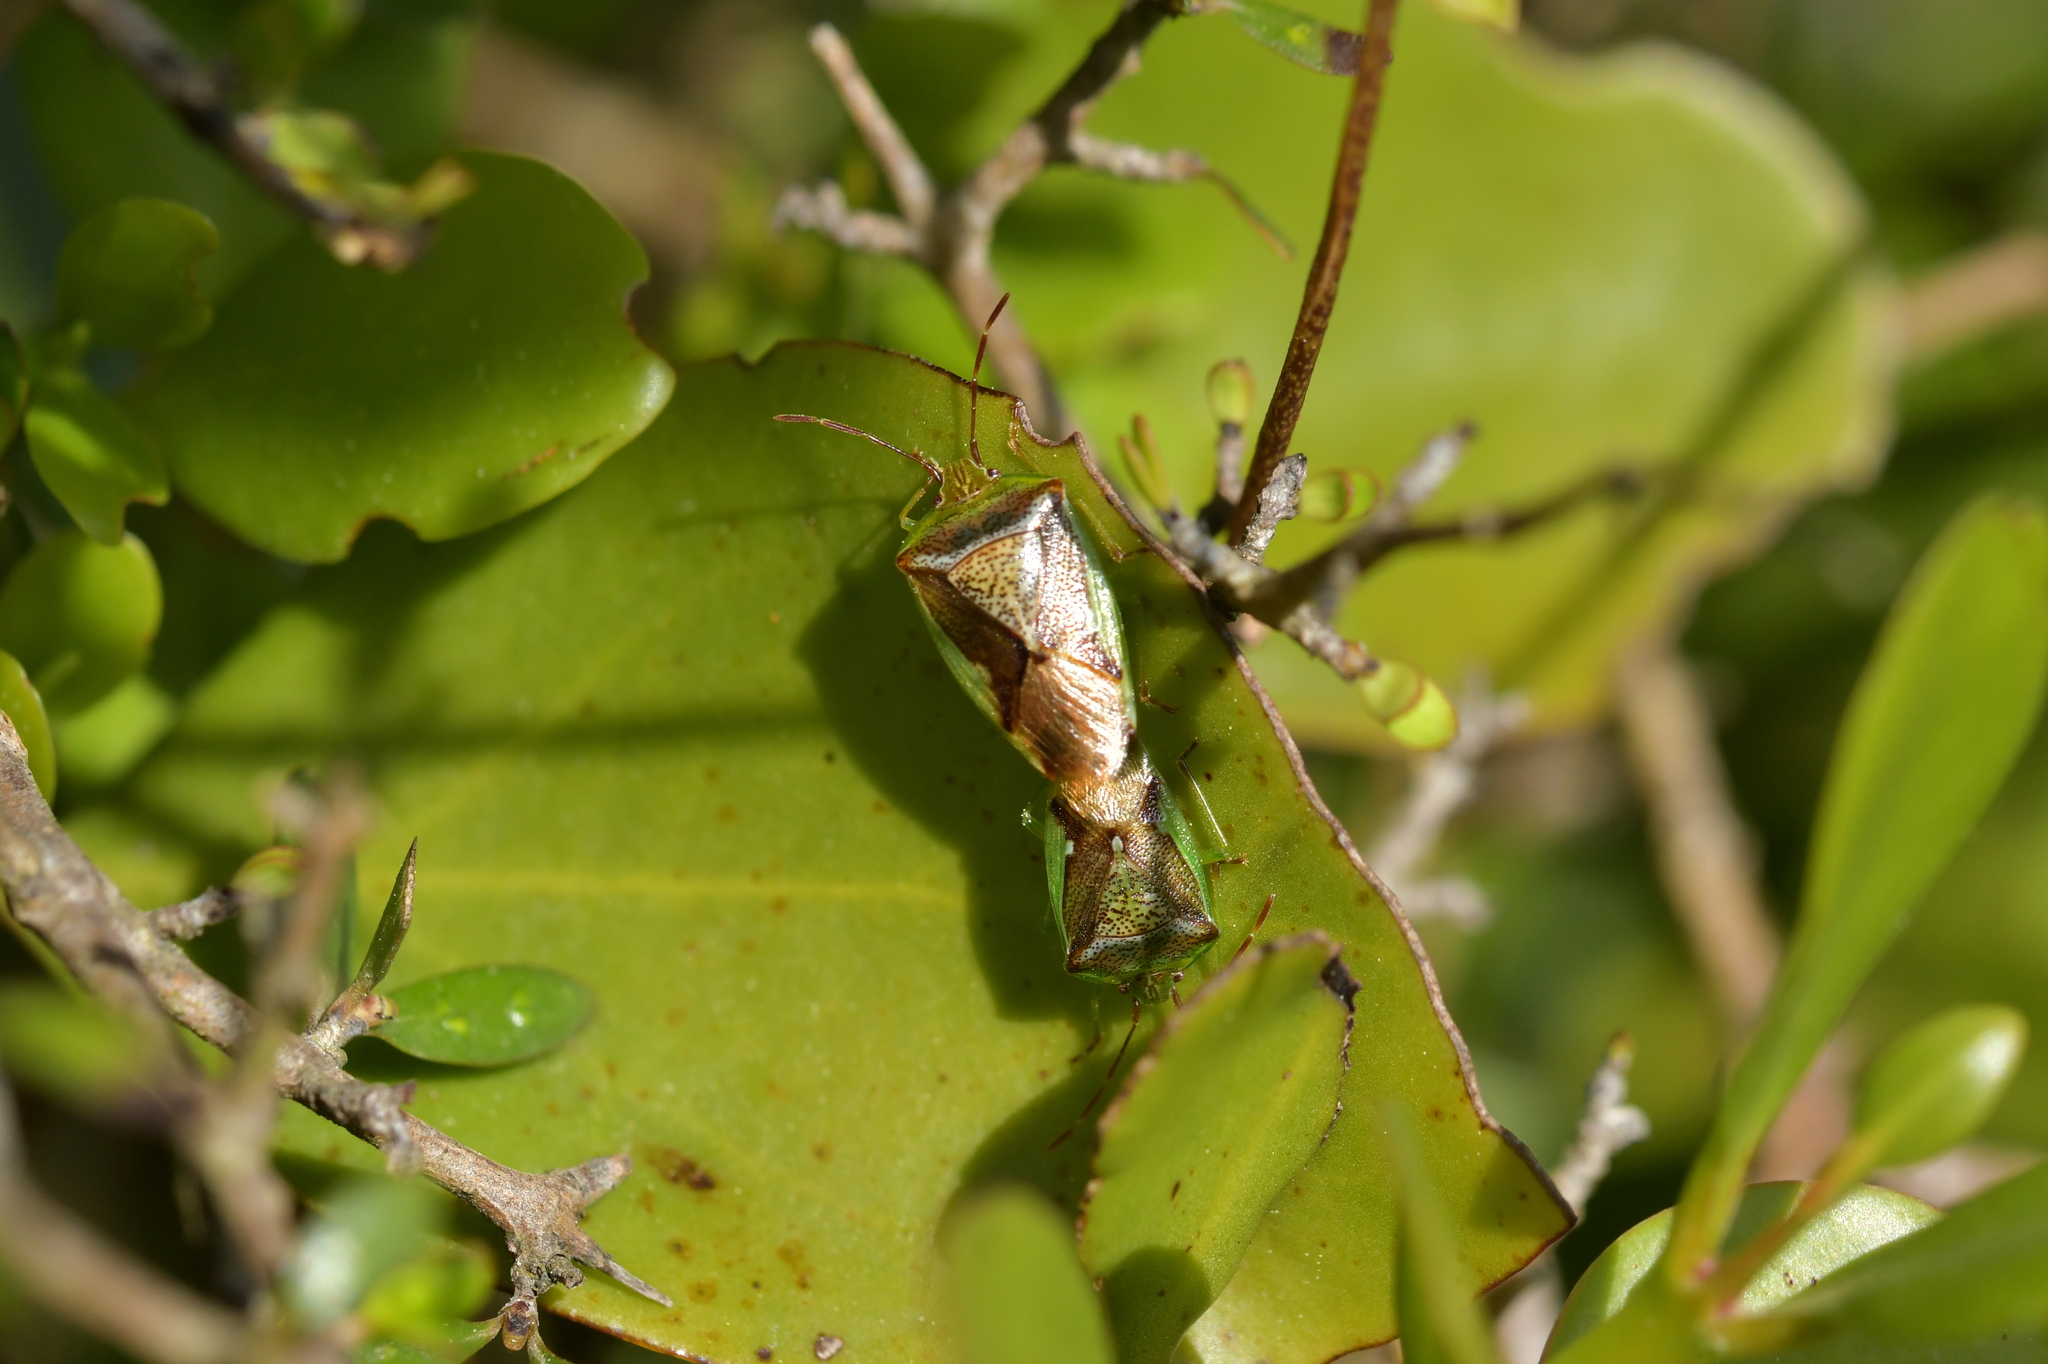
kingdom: Animalia
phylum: Arthropoda
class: Insecta
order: Hemiptera
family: Acanthosomatidae
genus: Oncacontias
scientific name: Oncacontias vittatus
